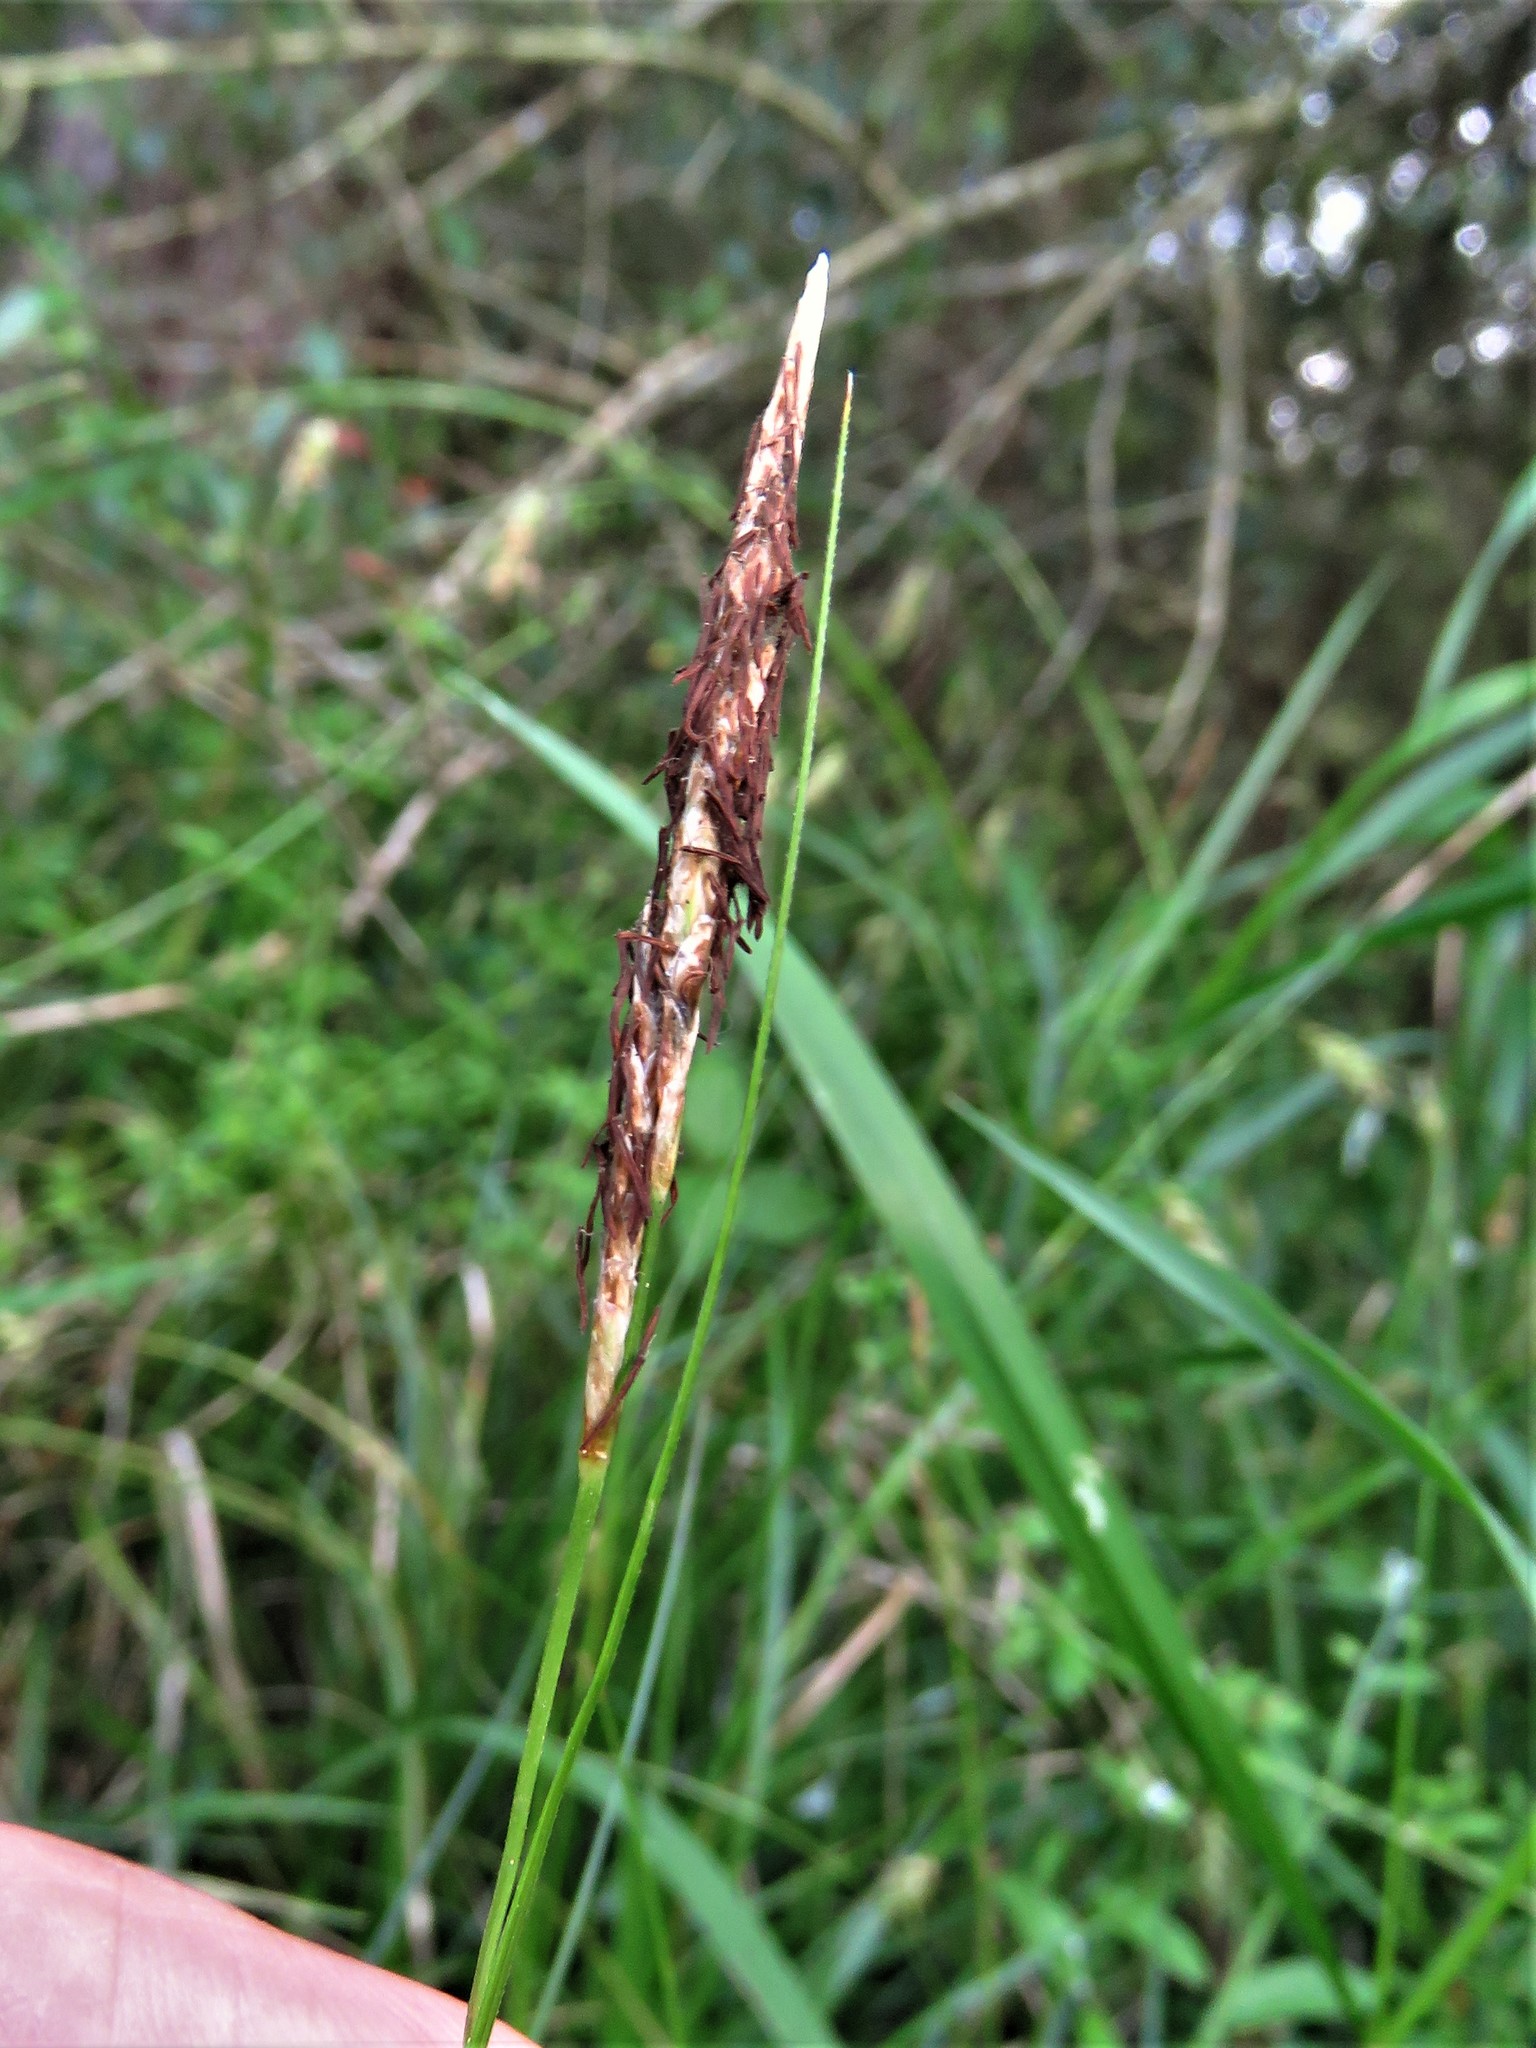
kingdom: Plantae
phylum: Tracheophyta
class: Liliopsida
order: Poales
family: Cyperaceae
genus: Carex
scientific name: Carex cherokeensis
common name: Cherokee sedge
